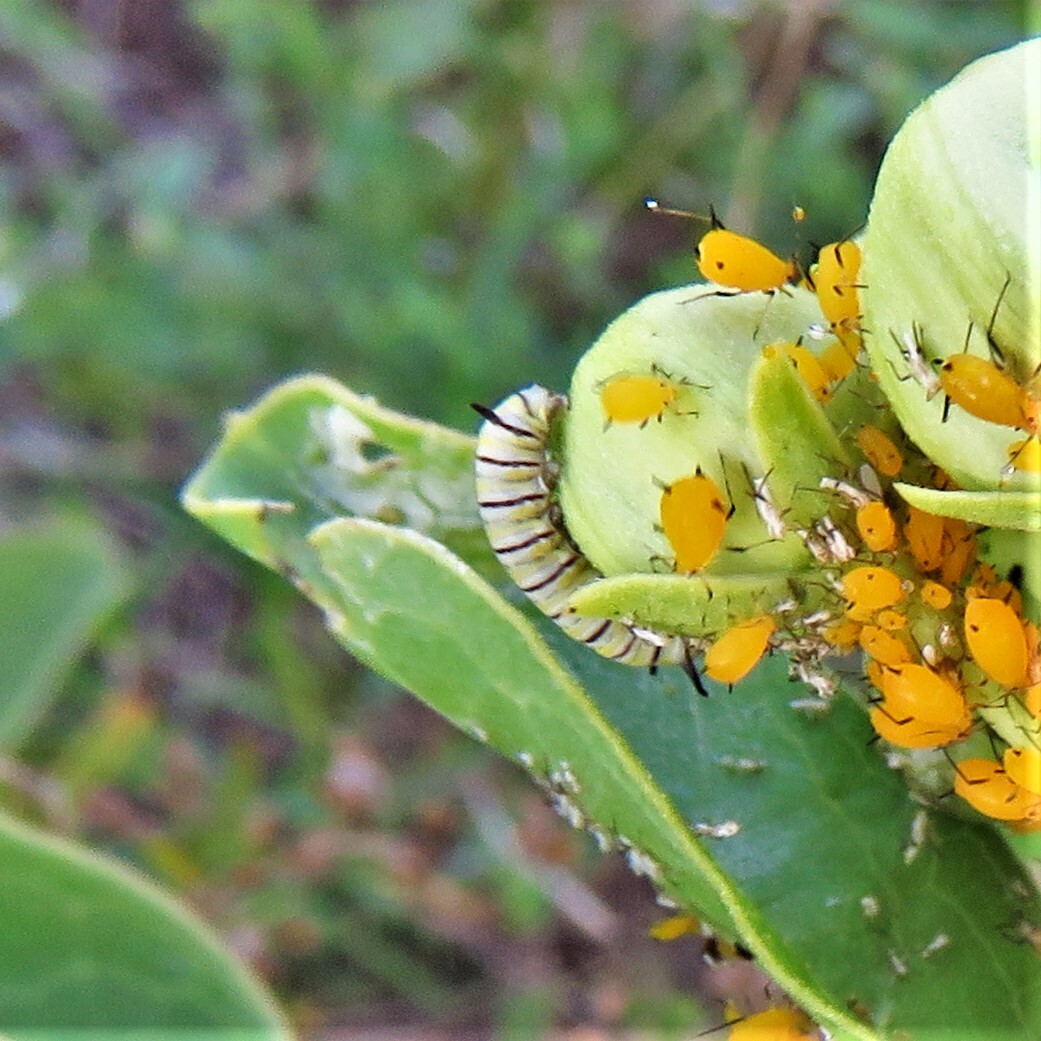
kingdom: Animalia
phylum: Arthropoda
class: Insecta
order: Lepidoptera
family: Nymphalidae
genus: Danaus
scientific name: Danaus plexippus
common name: Monarch
